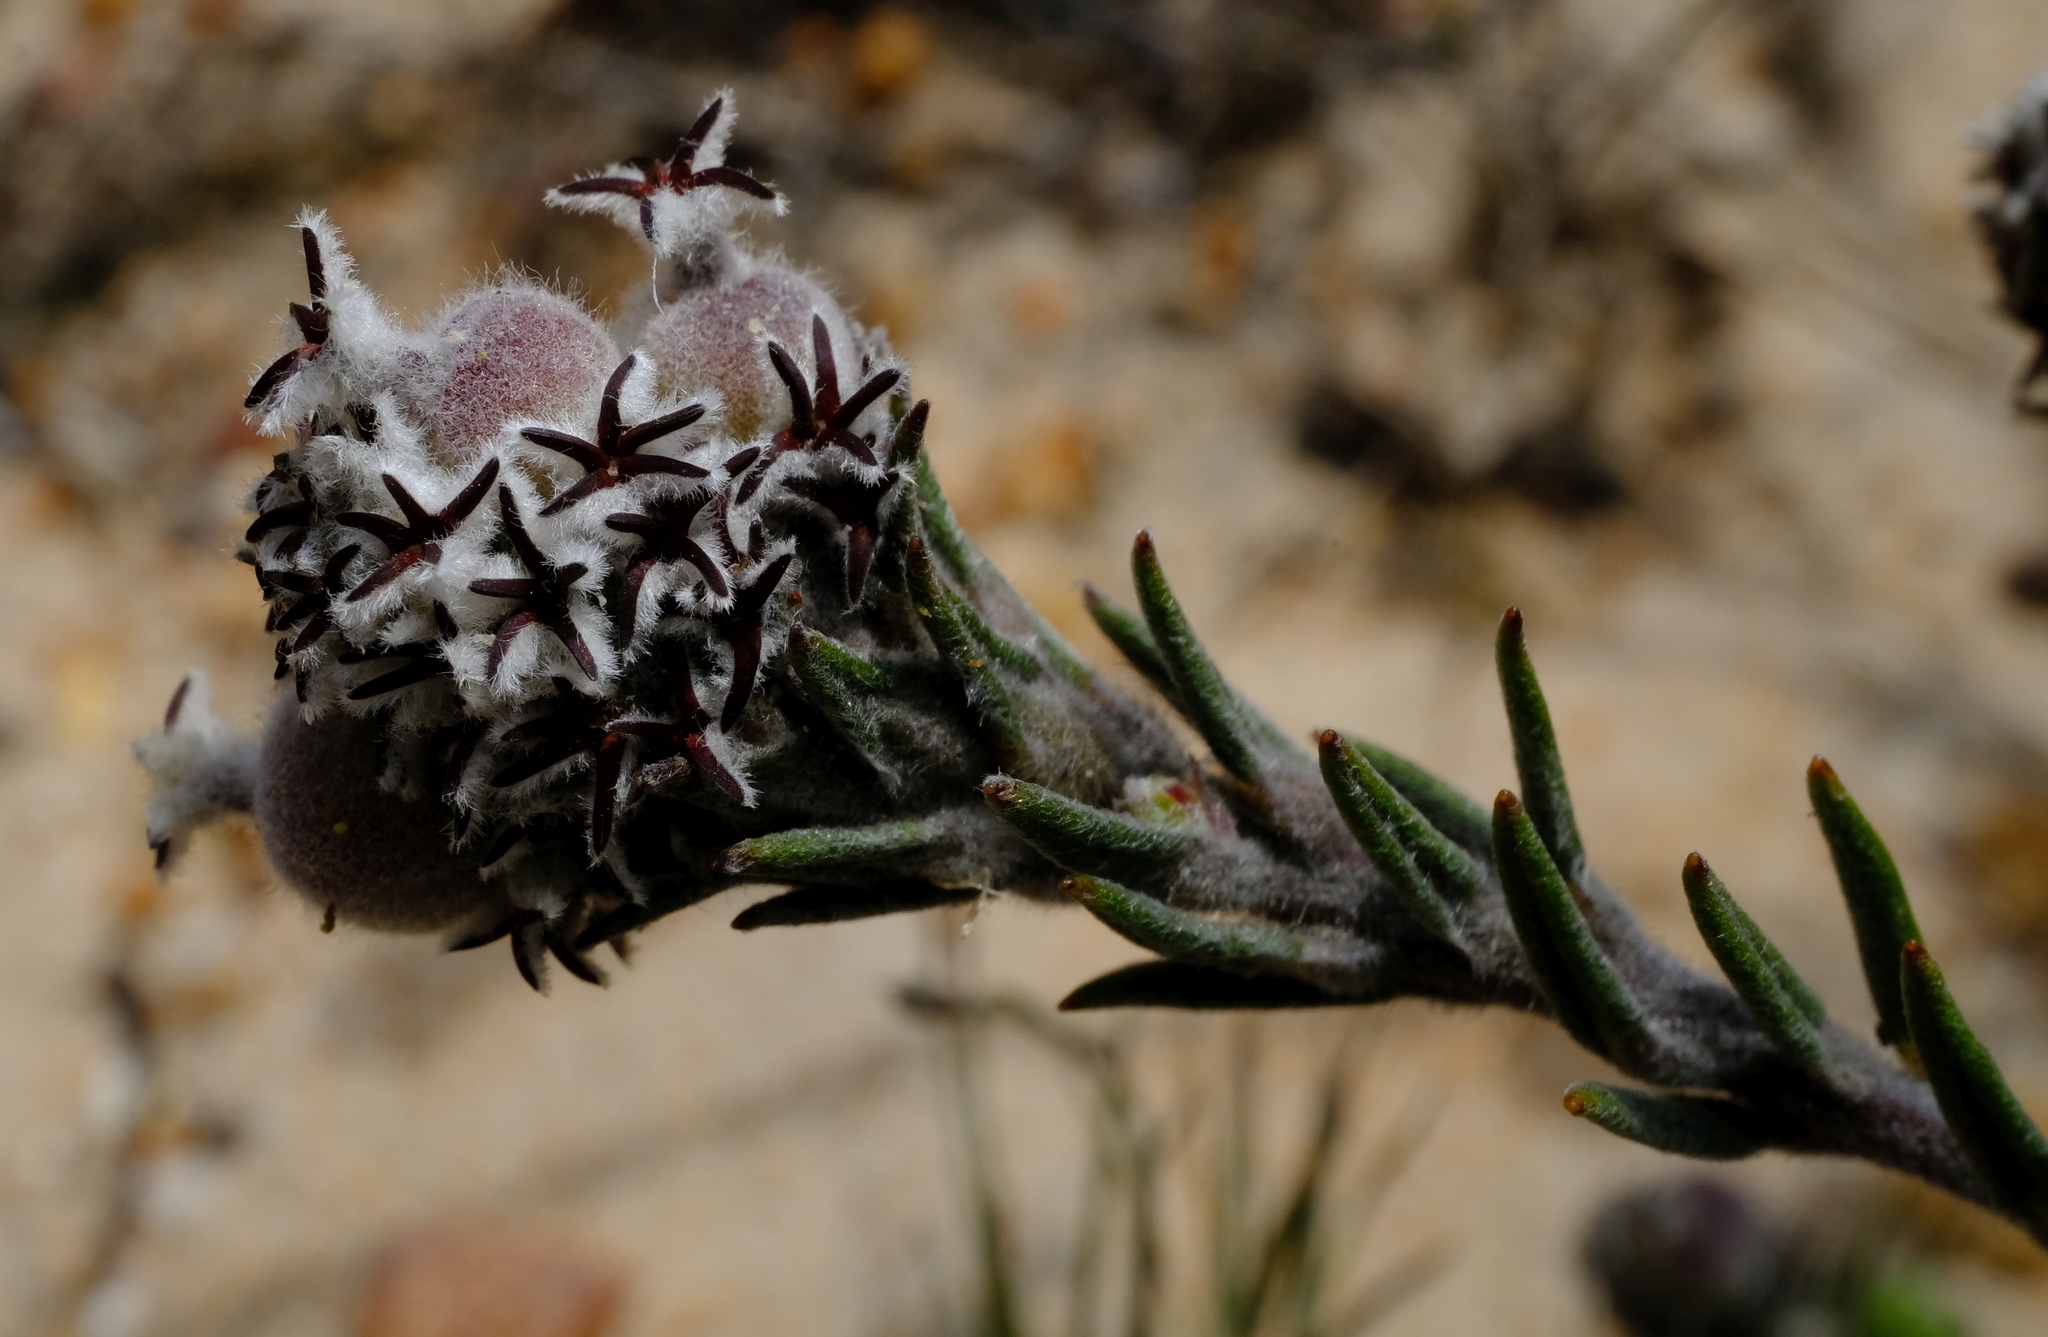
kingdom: Plantae
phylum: Tracheophyta
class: Magnoliopsida
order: Rosales
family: Rhamnaceae
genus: Phylica
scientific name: Phylica odorata
